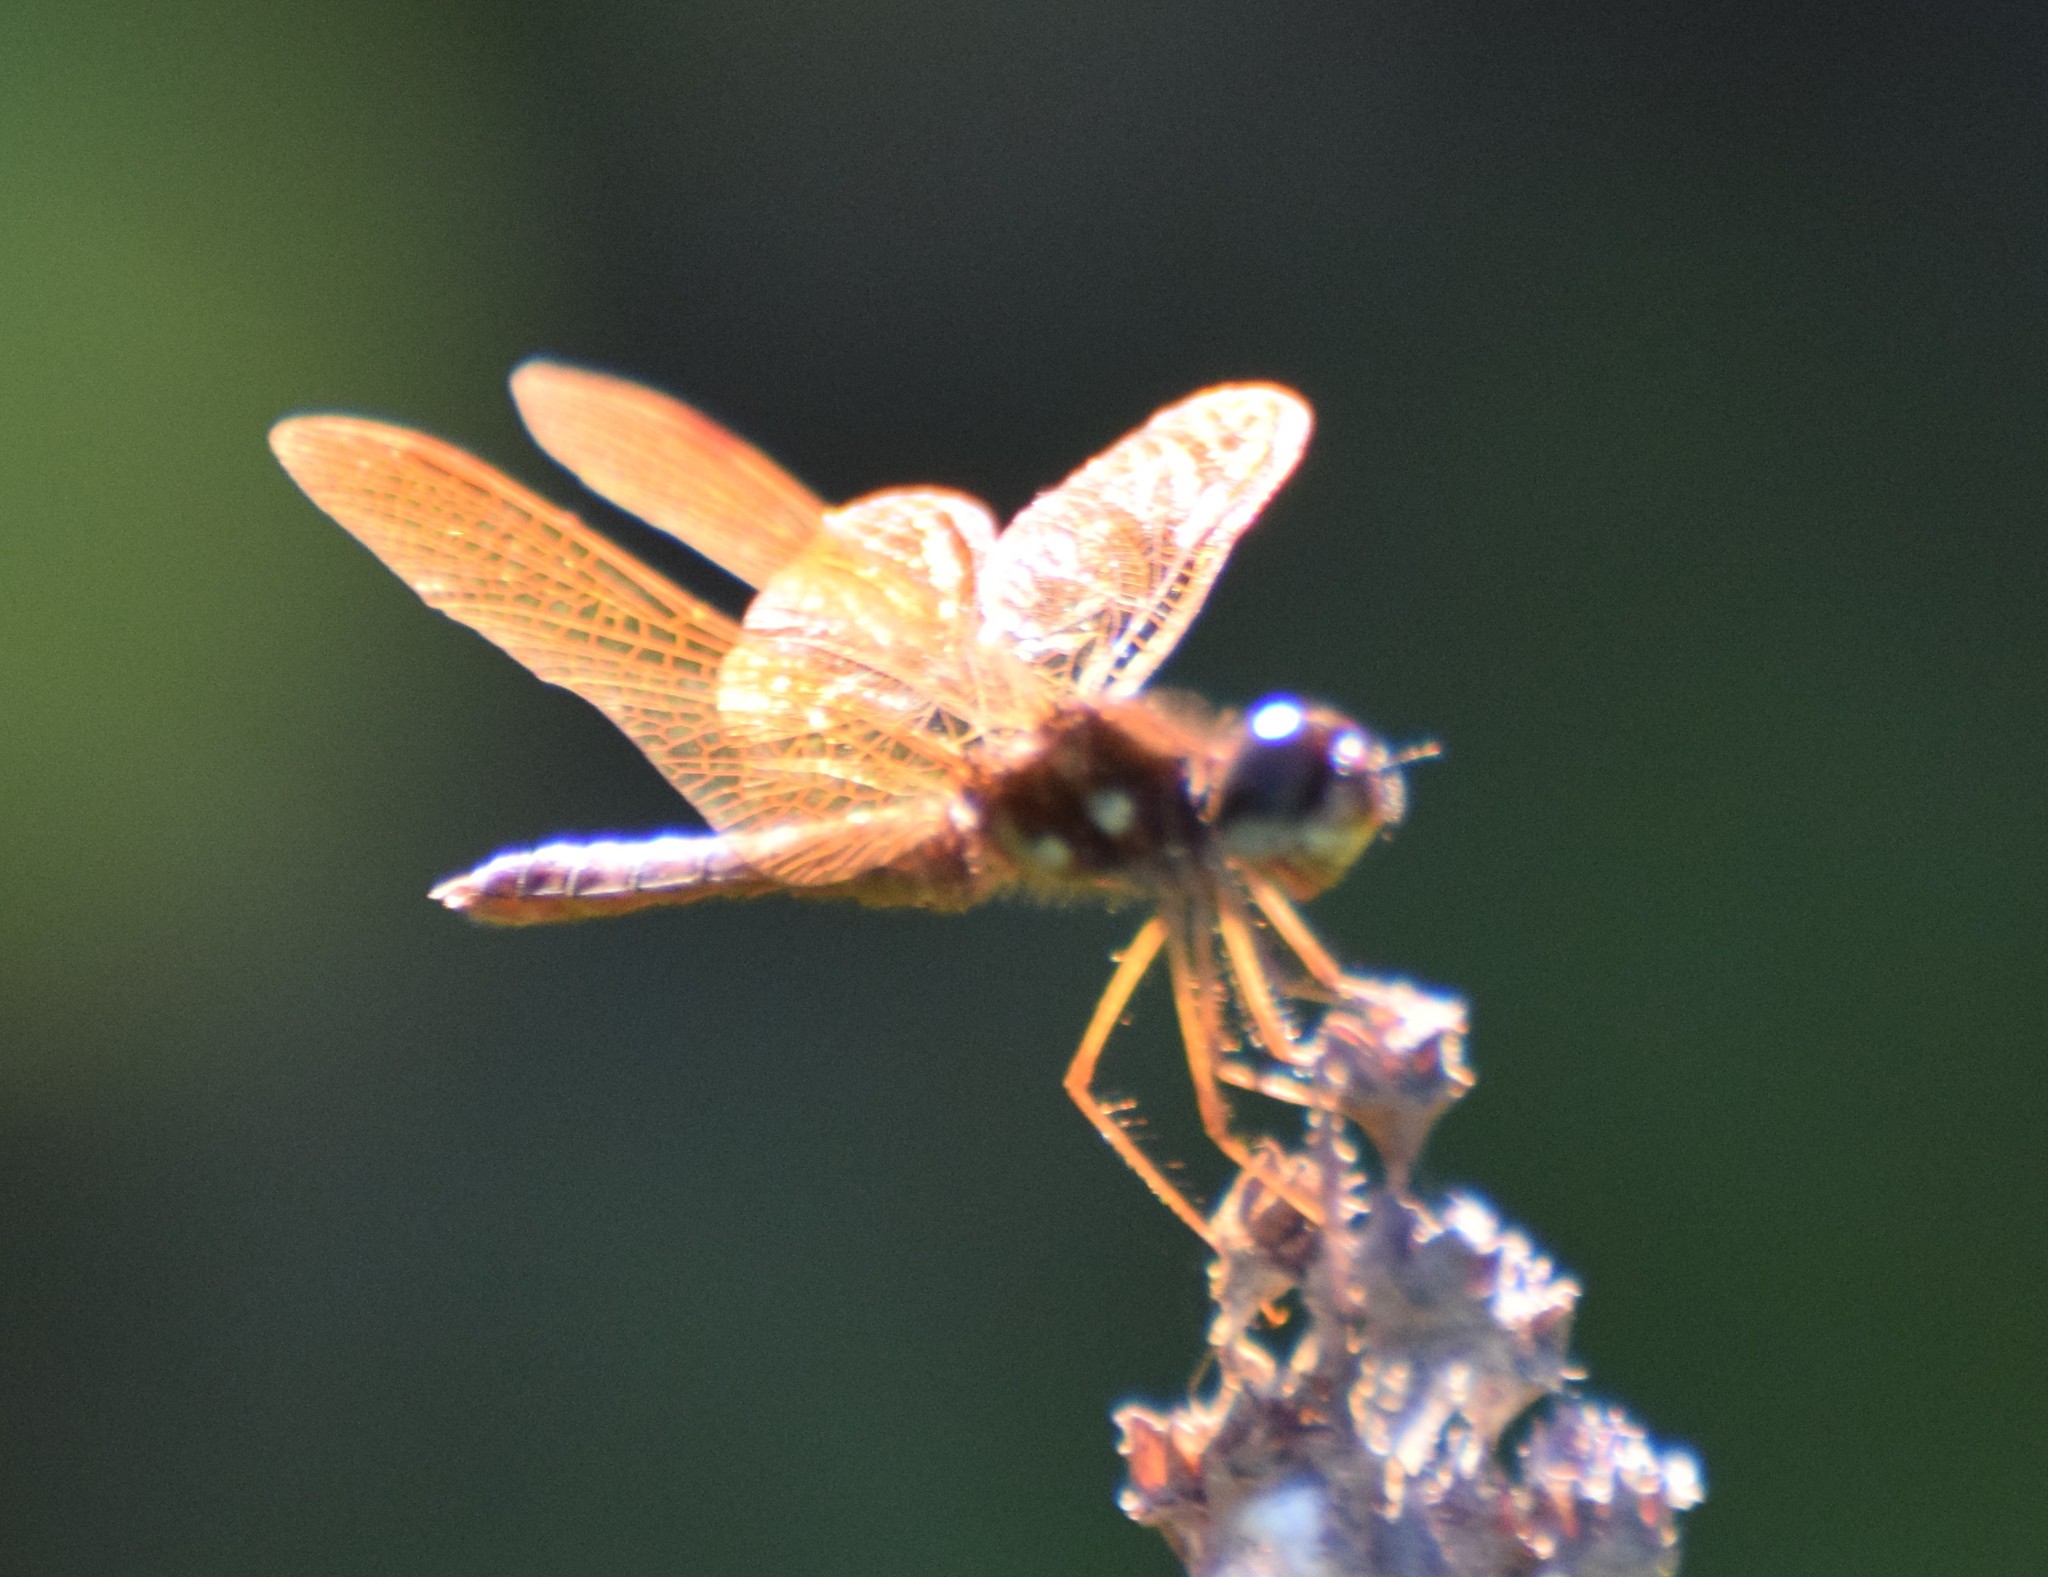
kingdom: Animalia
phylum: Arthropoda
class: Insecta
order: Odonata
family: Libellulidae
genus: Perithemis
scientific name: Perithemis tenera
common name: Eastern amberwing
